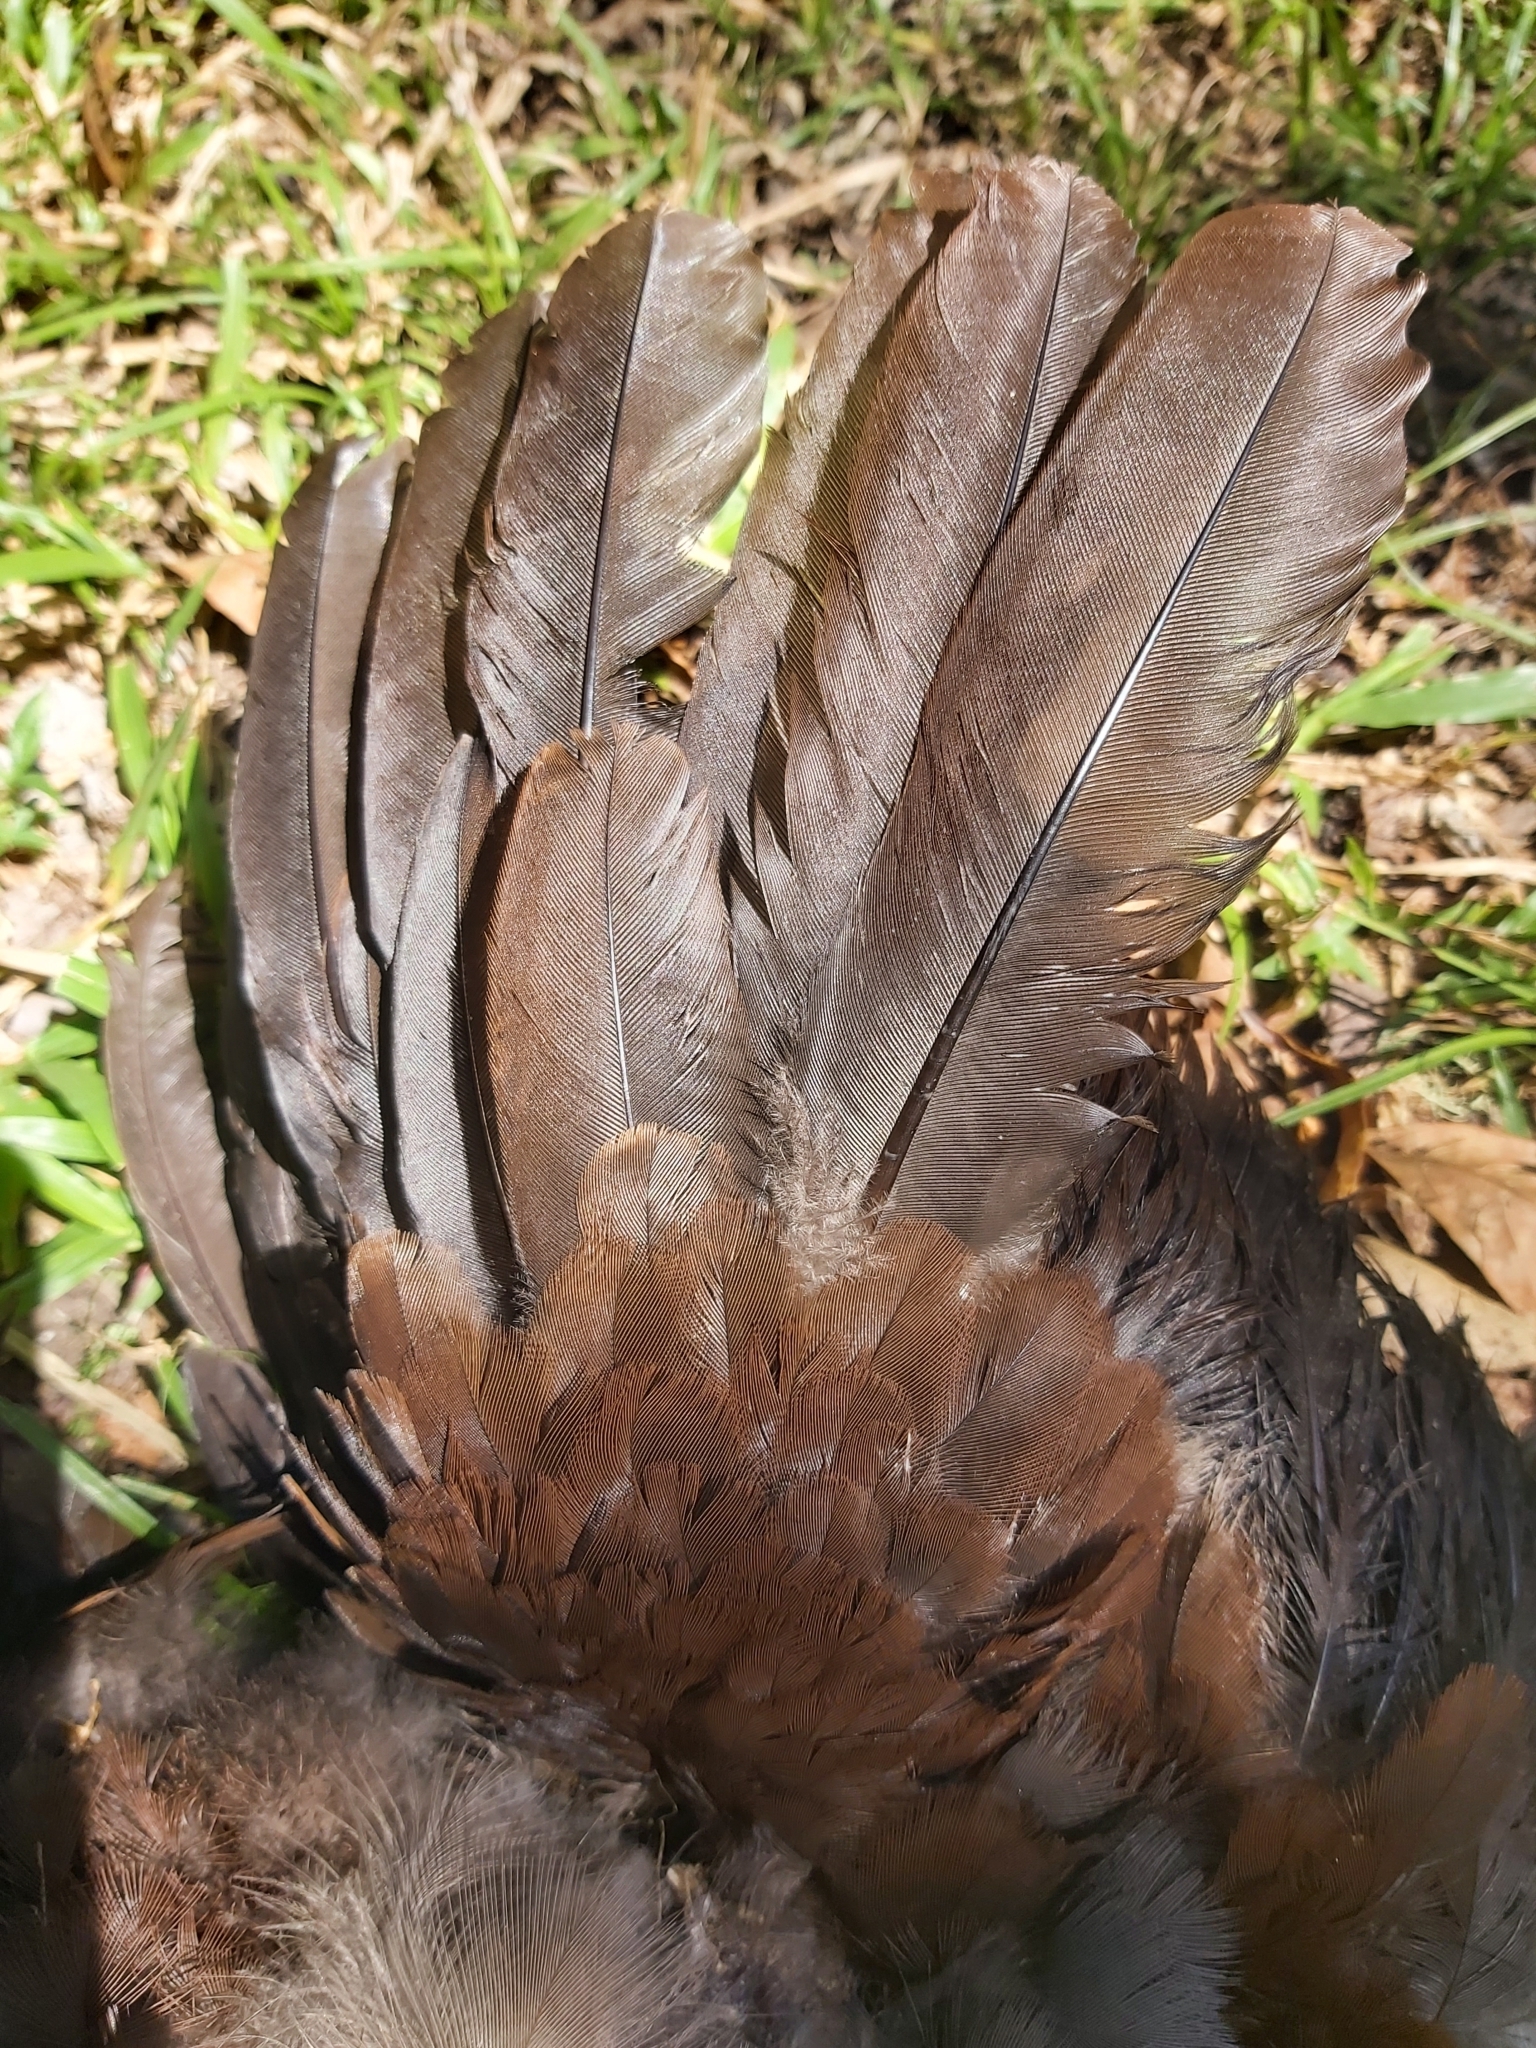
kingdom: Animalia
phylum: Chordata
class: Aves
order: Galliformes
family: Megapodiidae
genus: Megapodius
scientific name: Megapodius reinwardt
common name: Orange-footed scrubfowl
